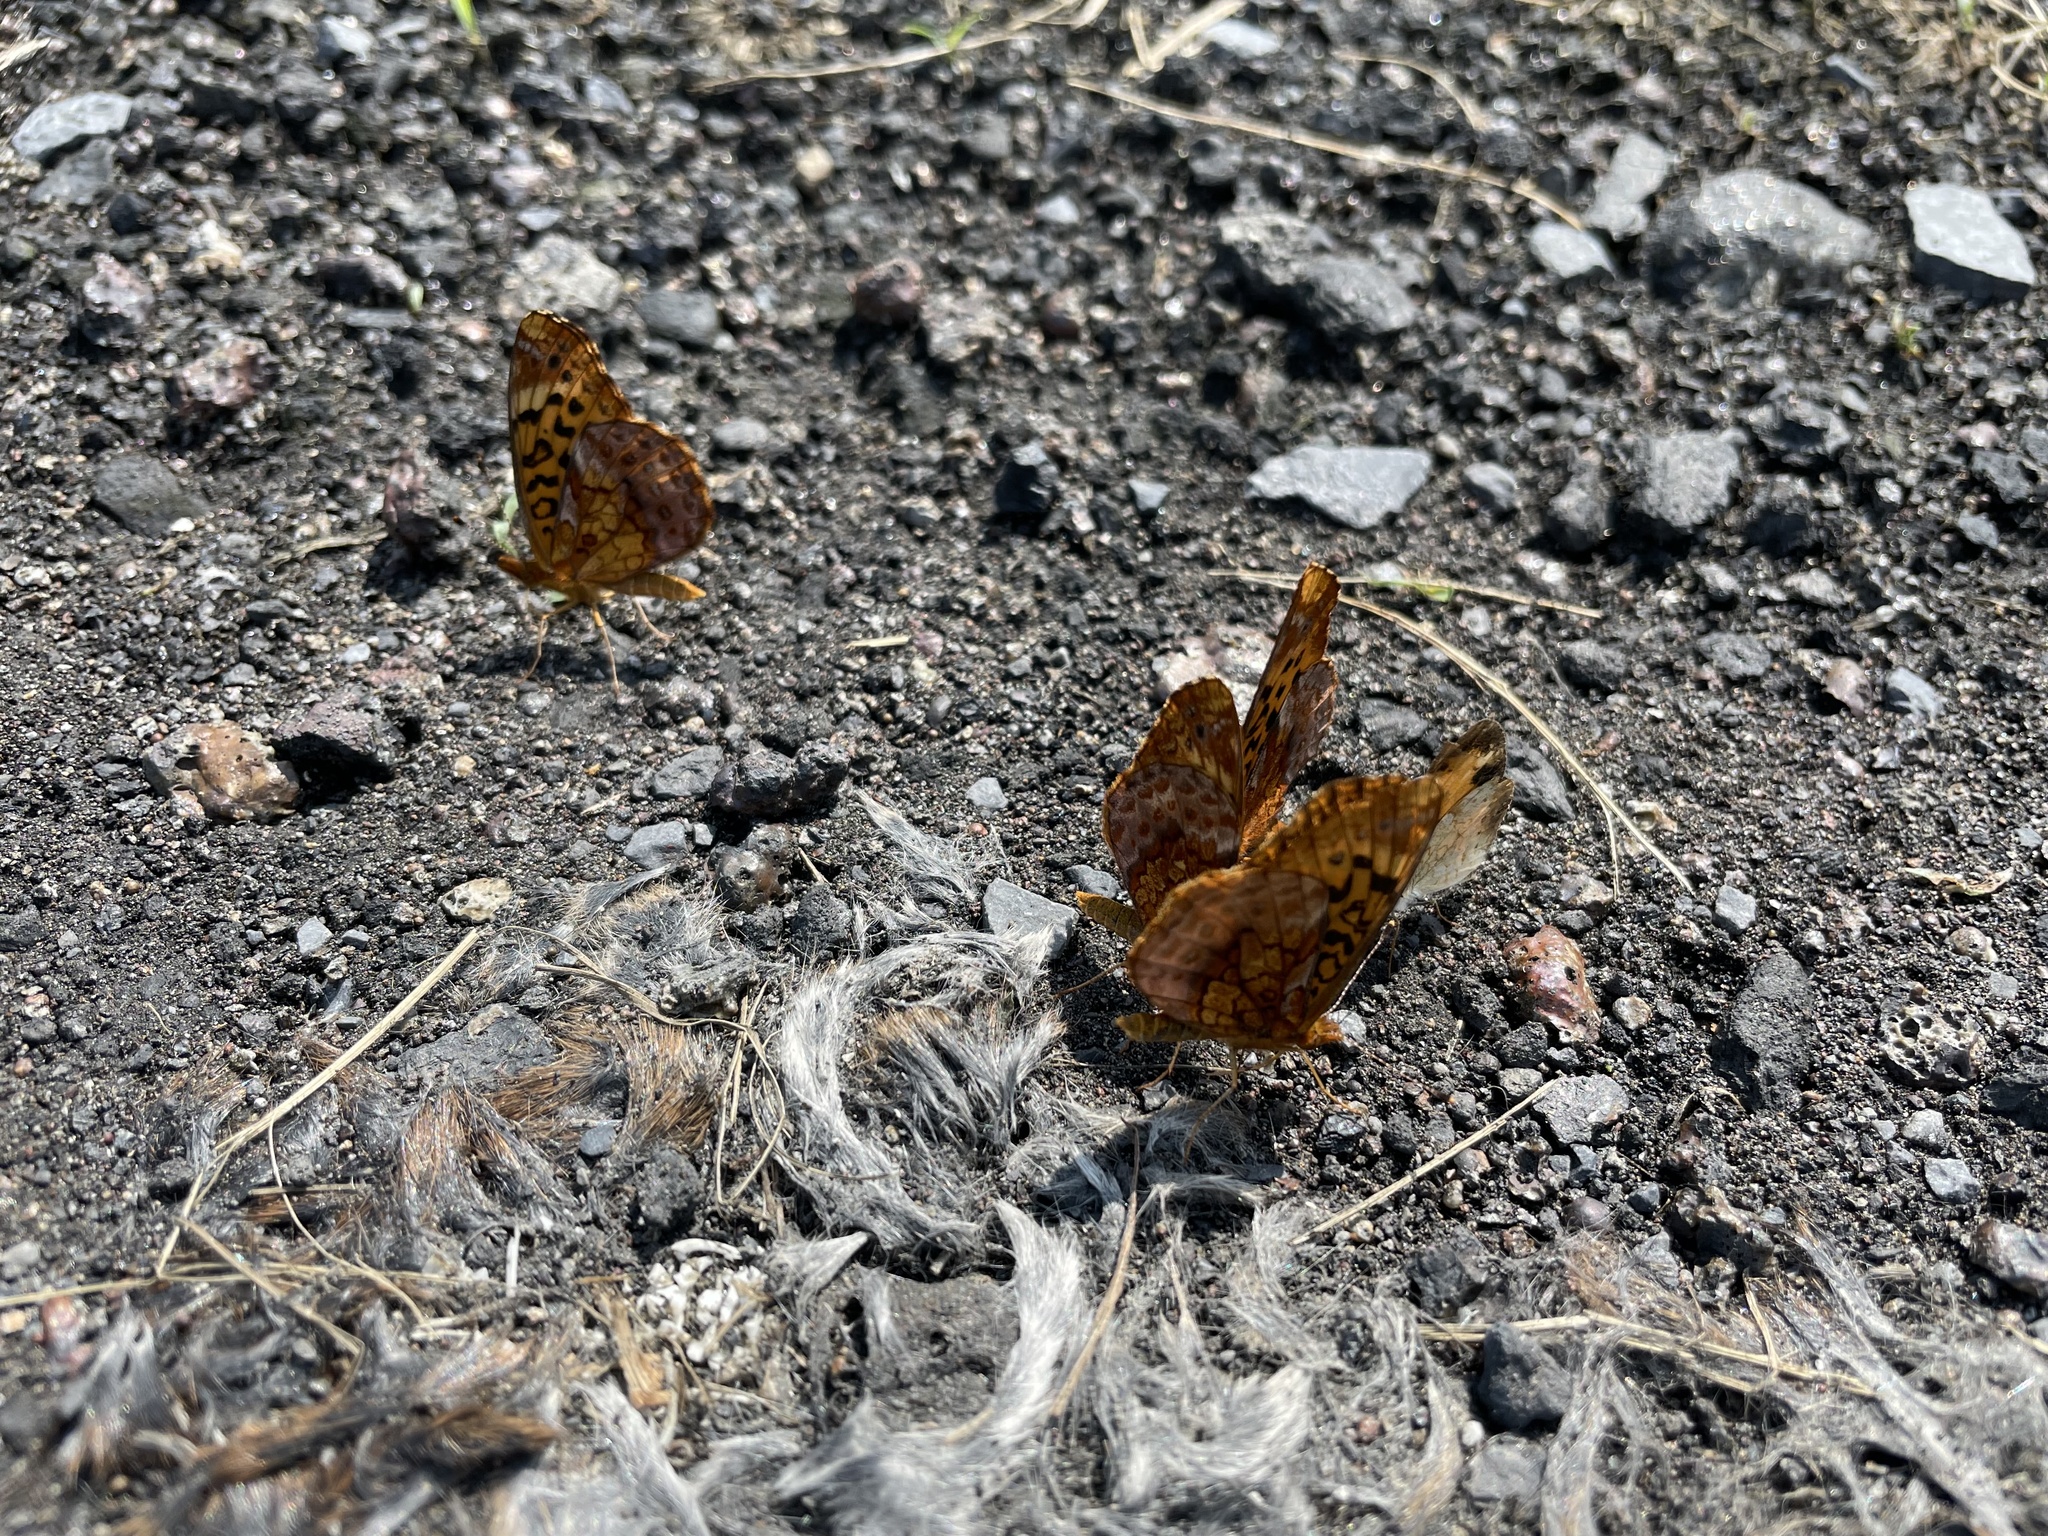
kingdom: Animalia
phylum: Arthropoda
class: Insecta
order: Lepidoptera
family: Nymphalidae
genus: Clossiana
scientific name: Clossiana toddi
